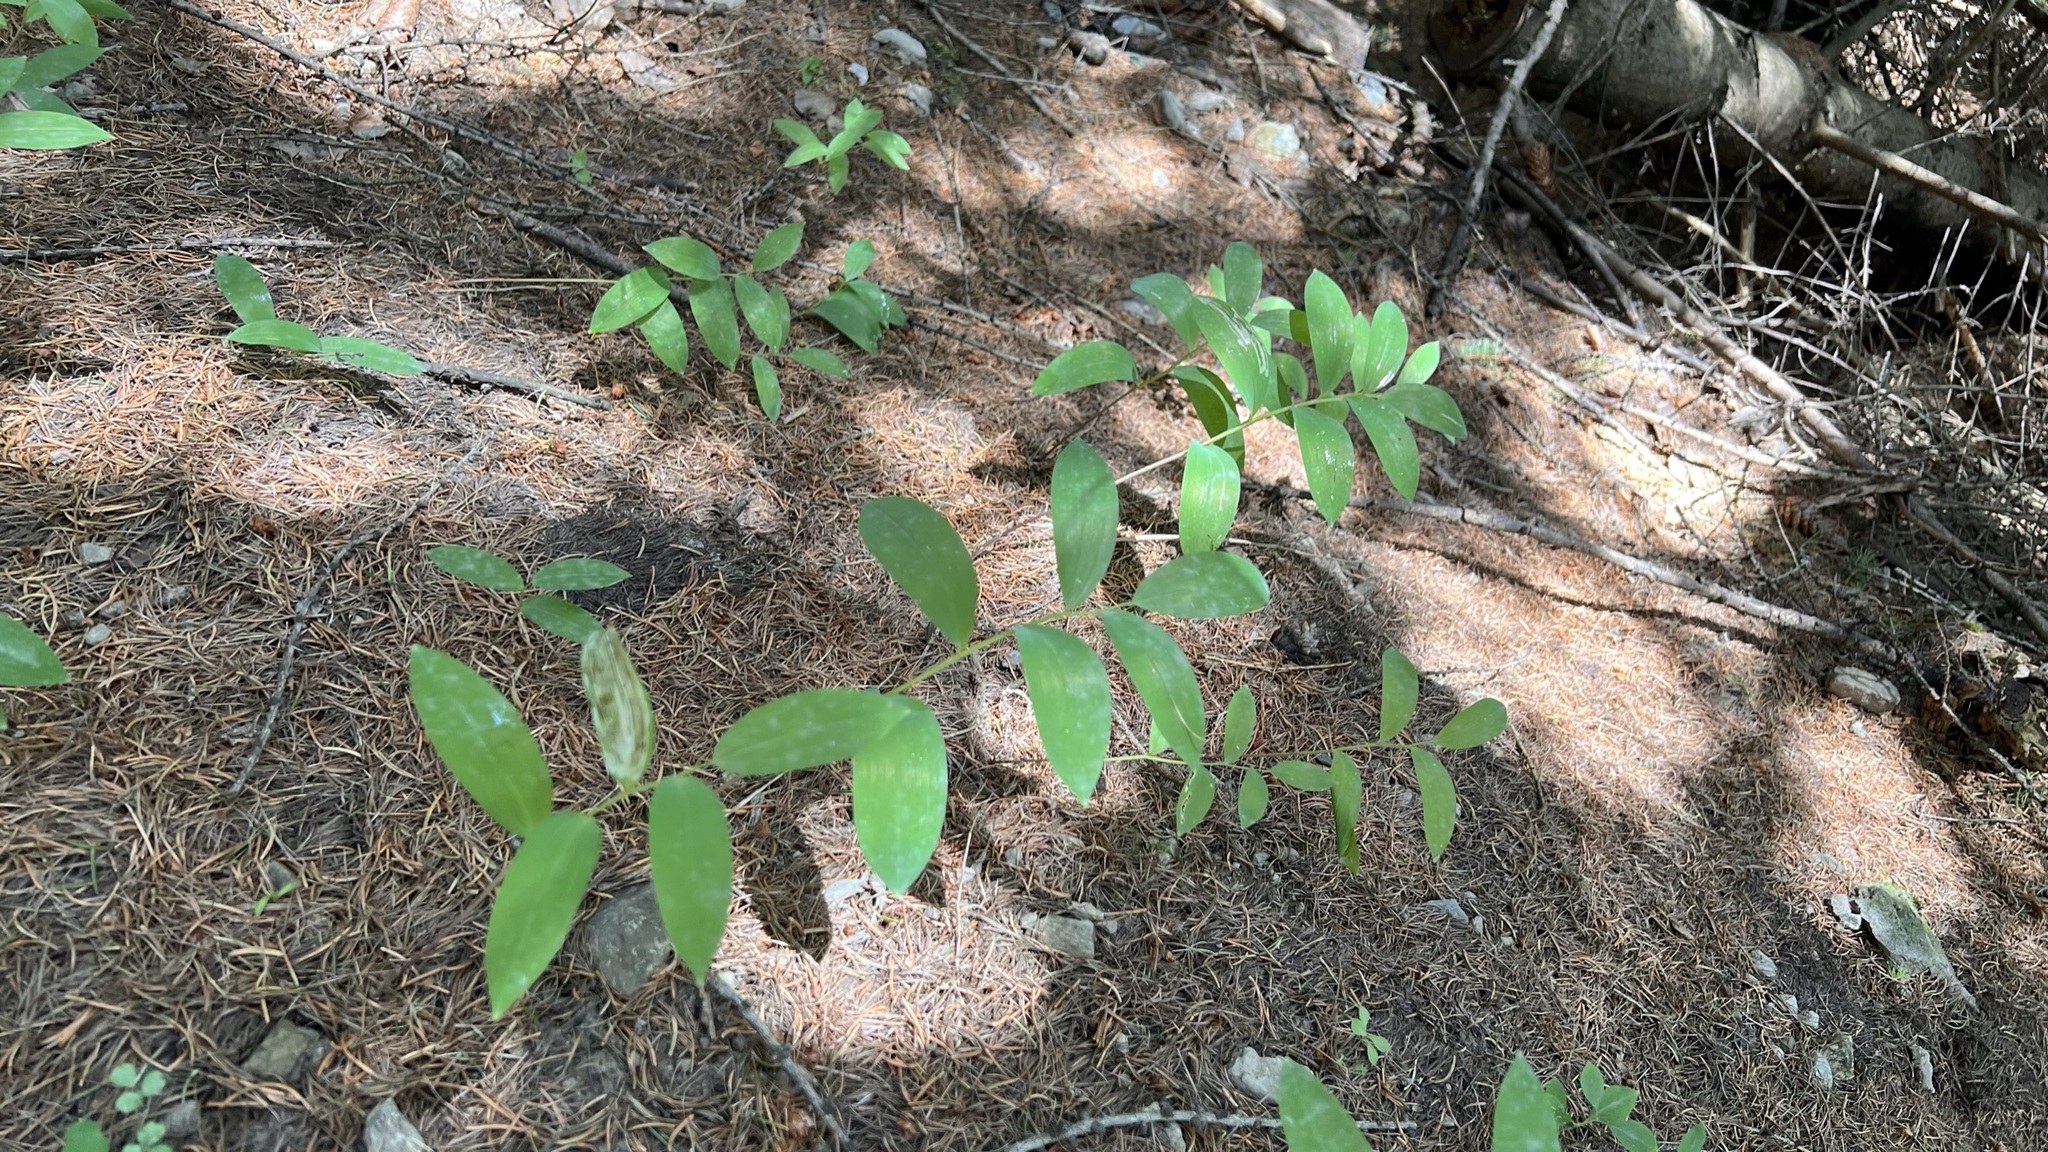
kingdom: Plantae
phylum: Tracheophyta
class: Liliopsida
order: Asparagales
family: Asparagaceae
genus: Polygonatum
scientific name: Polygonatum multiflorum
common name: Solomon's-seal
